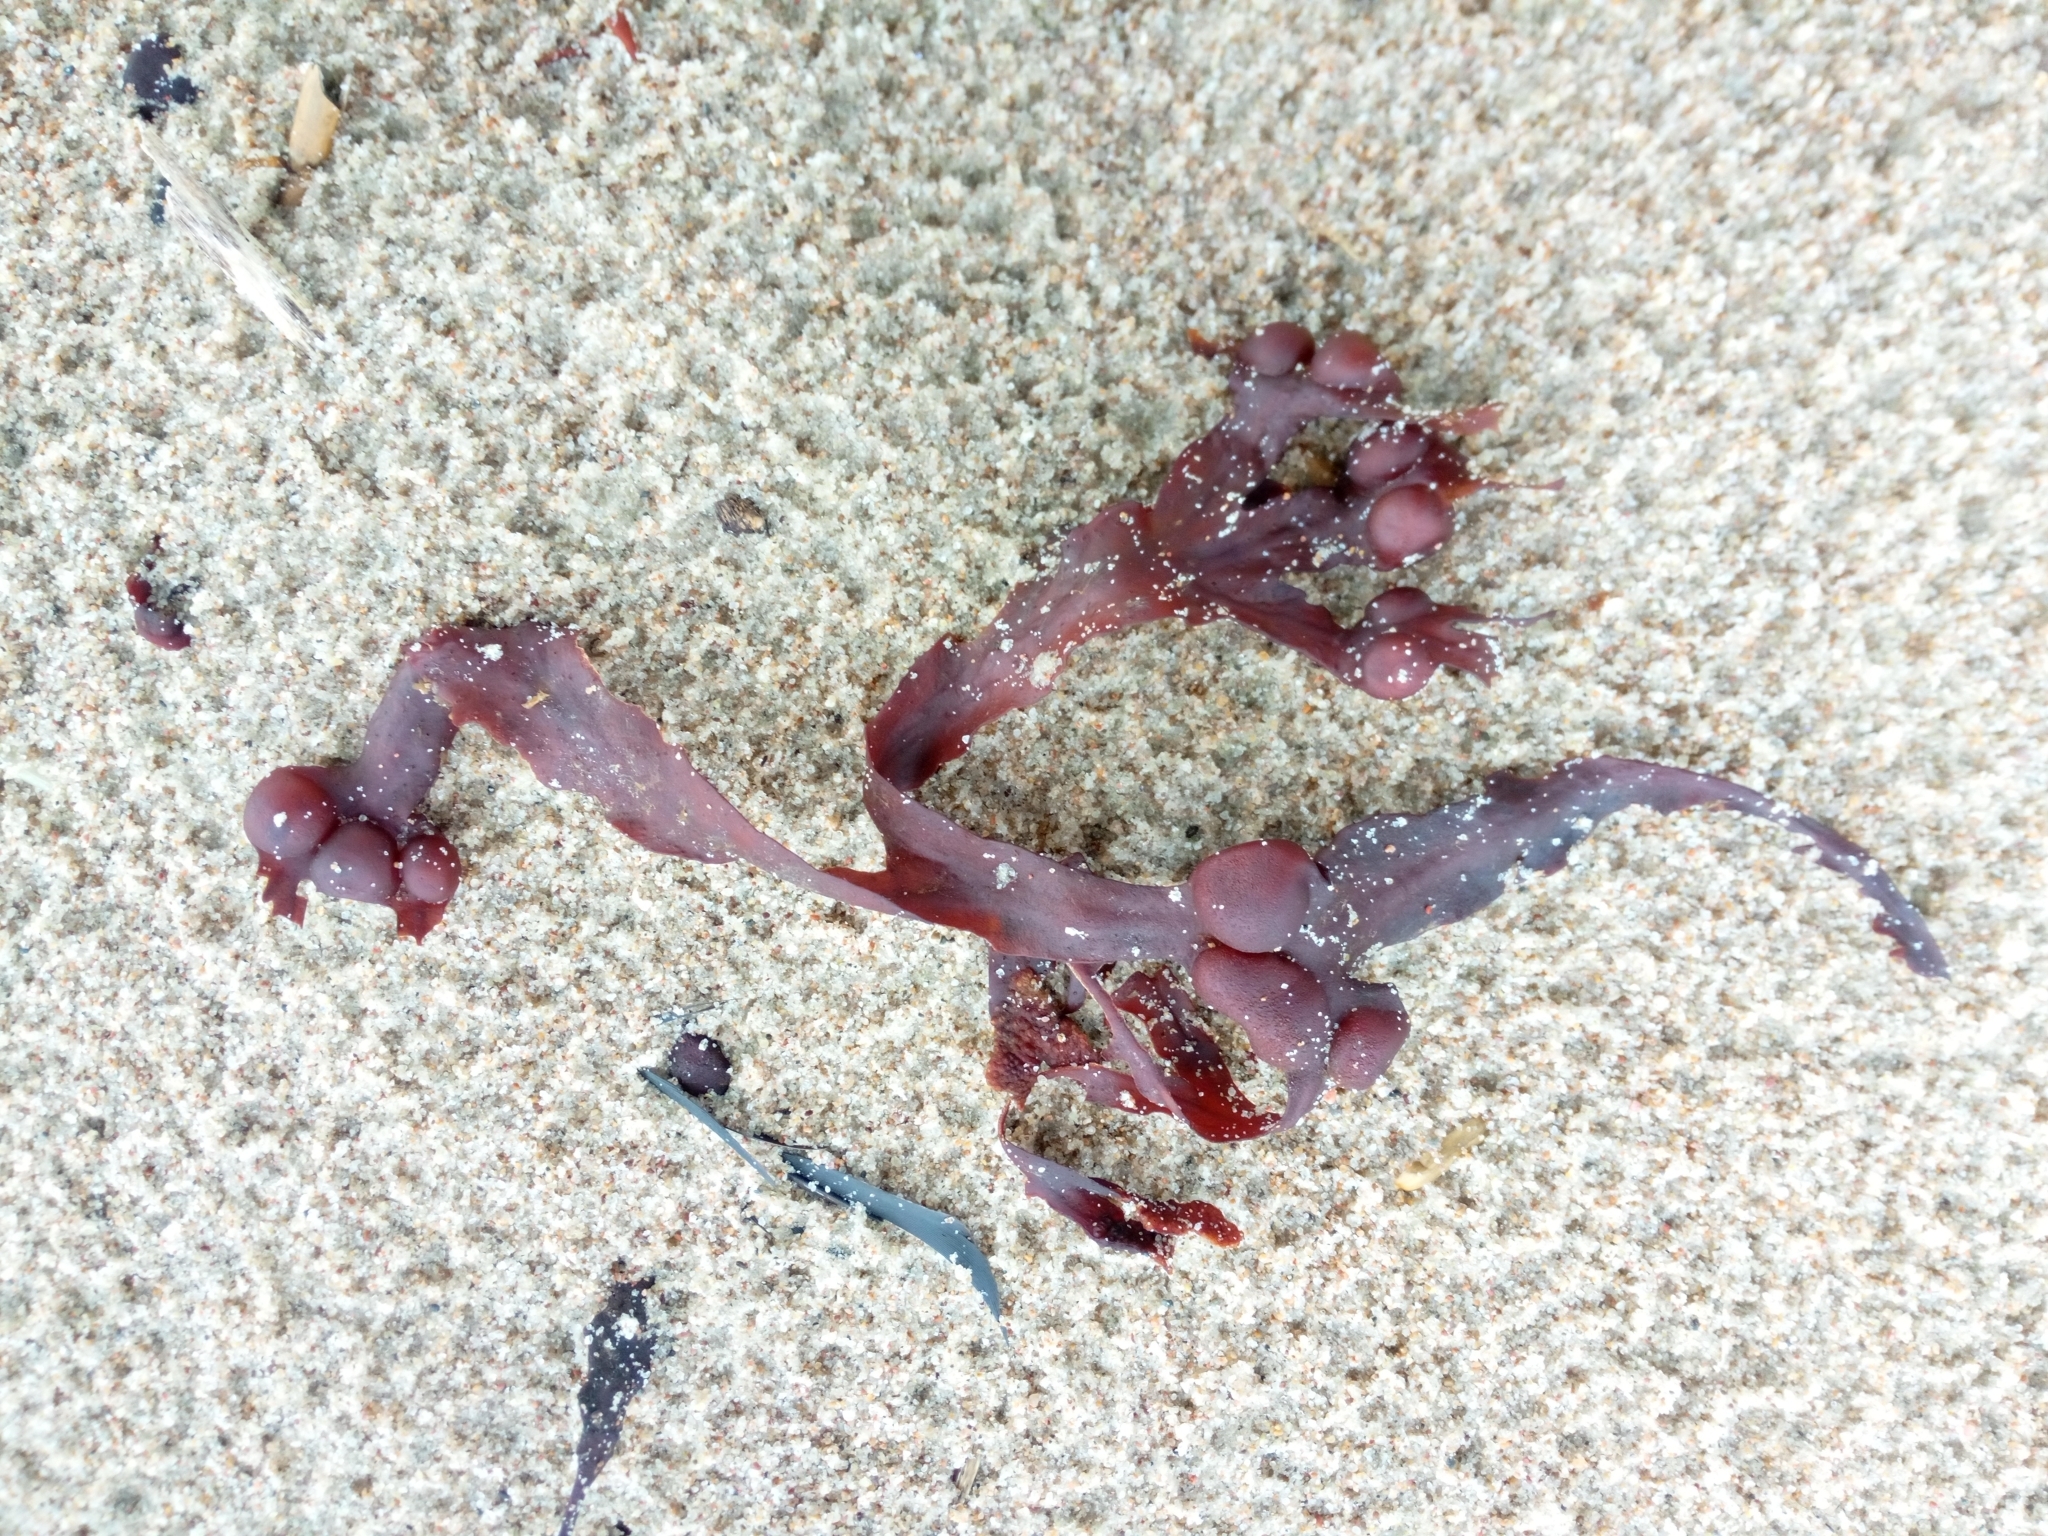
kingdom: Chromista
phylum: Ochrophyta
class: Phaeophyceae
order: Fucales
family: Fucaceae
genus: Fucus
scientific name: Fucus vesiculosus
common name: Bladder wrack
